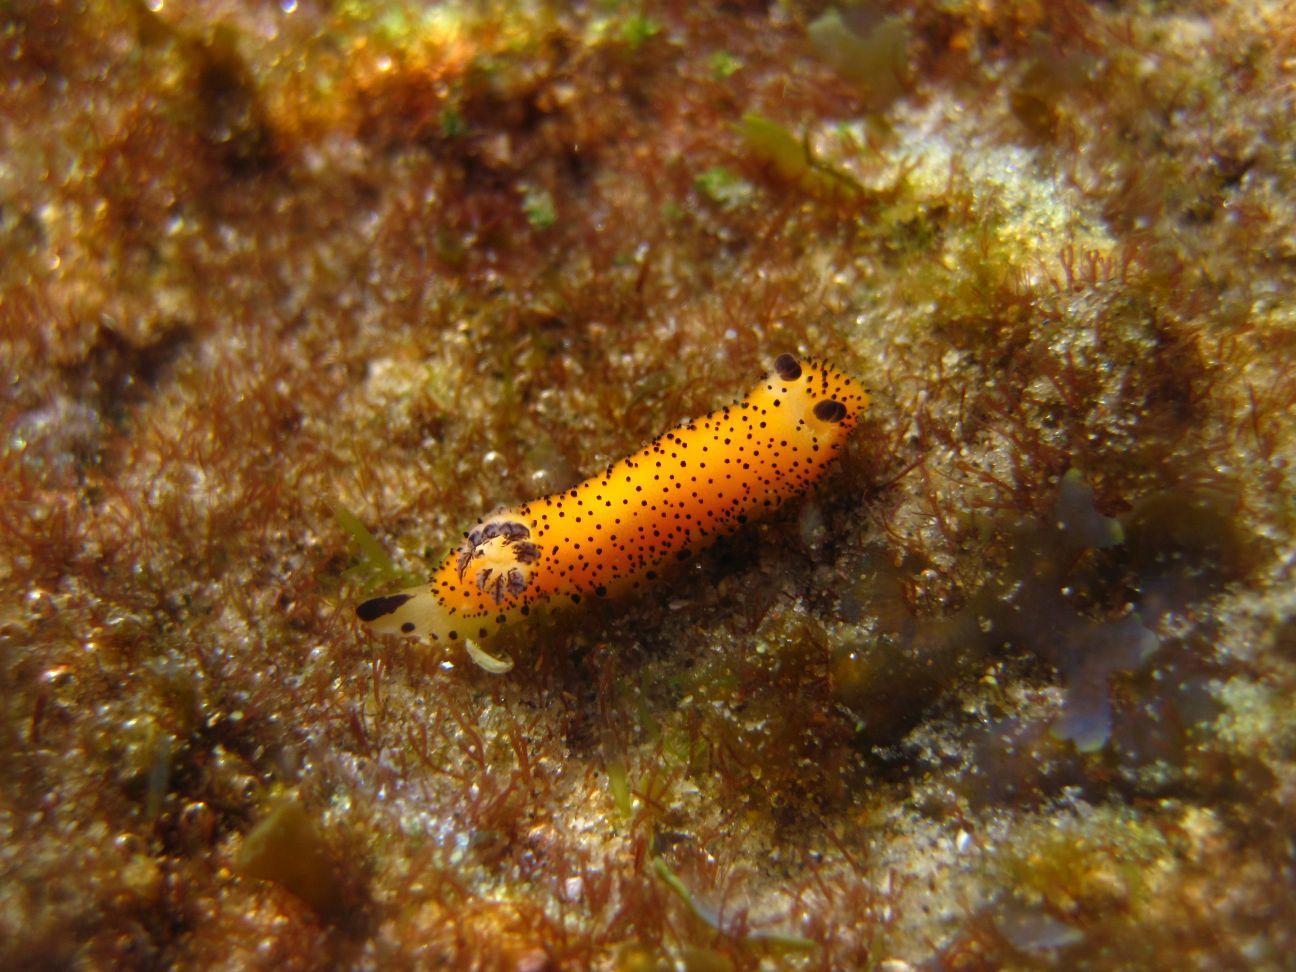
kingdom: Animalia
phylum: Mollusca
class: Gastropoda
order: Nudibranchia
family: Discodorididae
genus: Jorunna
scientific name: Jorunna parva
